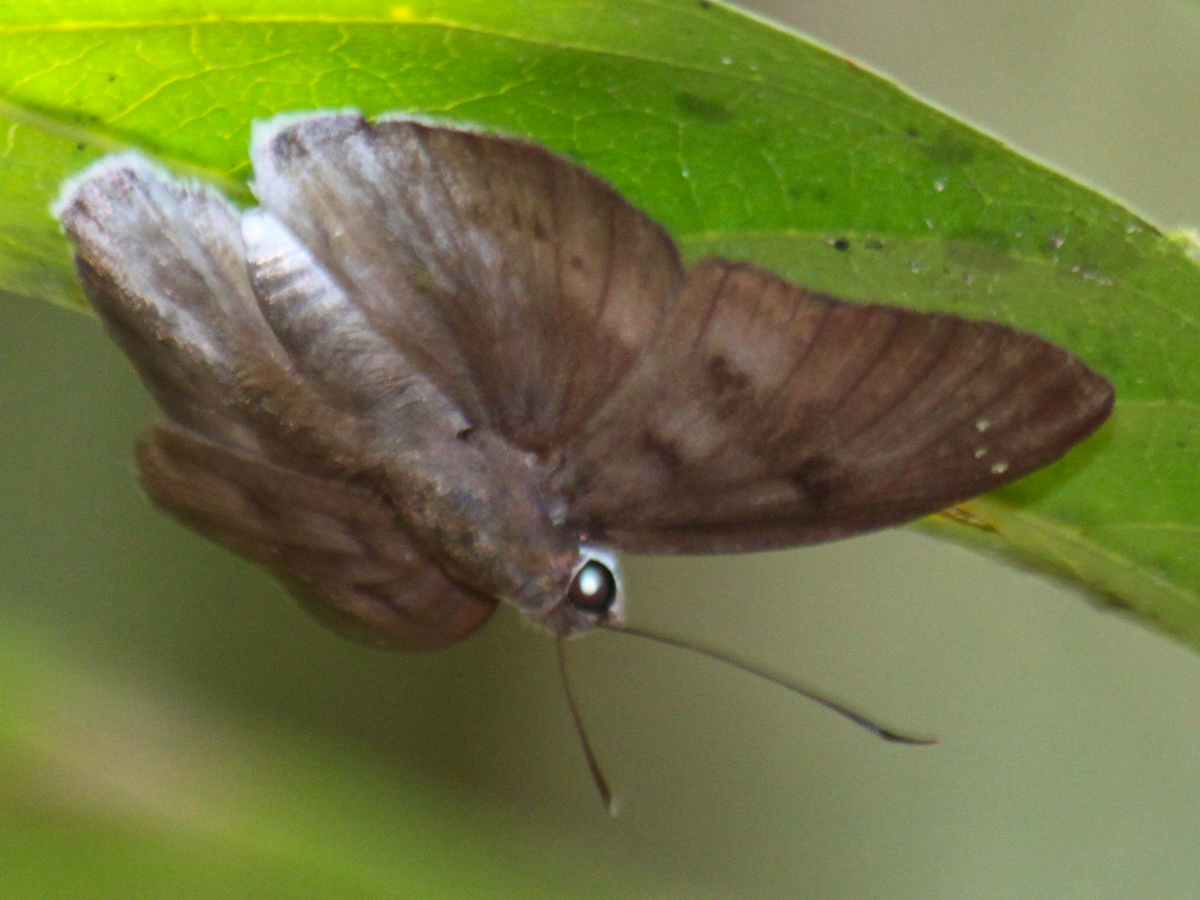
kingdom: Animalia
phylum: Arthropoda
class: Insecta
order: Lepidoptera
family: Hesperiidae
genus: Tagiades
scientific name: Tagiades gana
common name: Suffused snow flat
